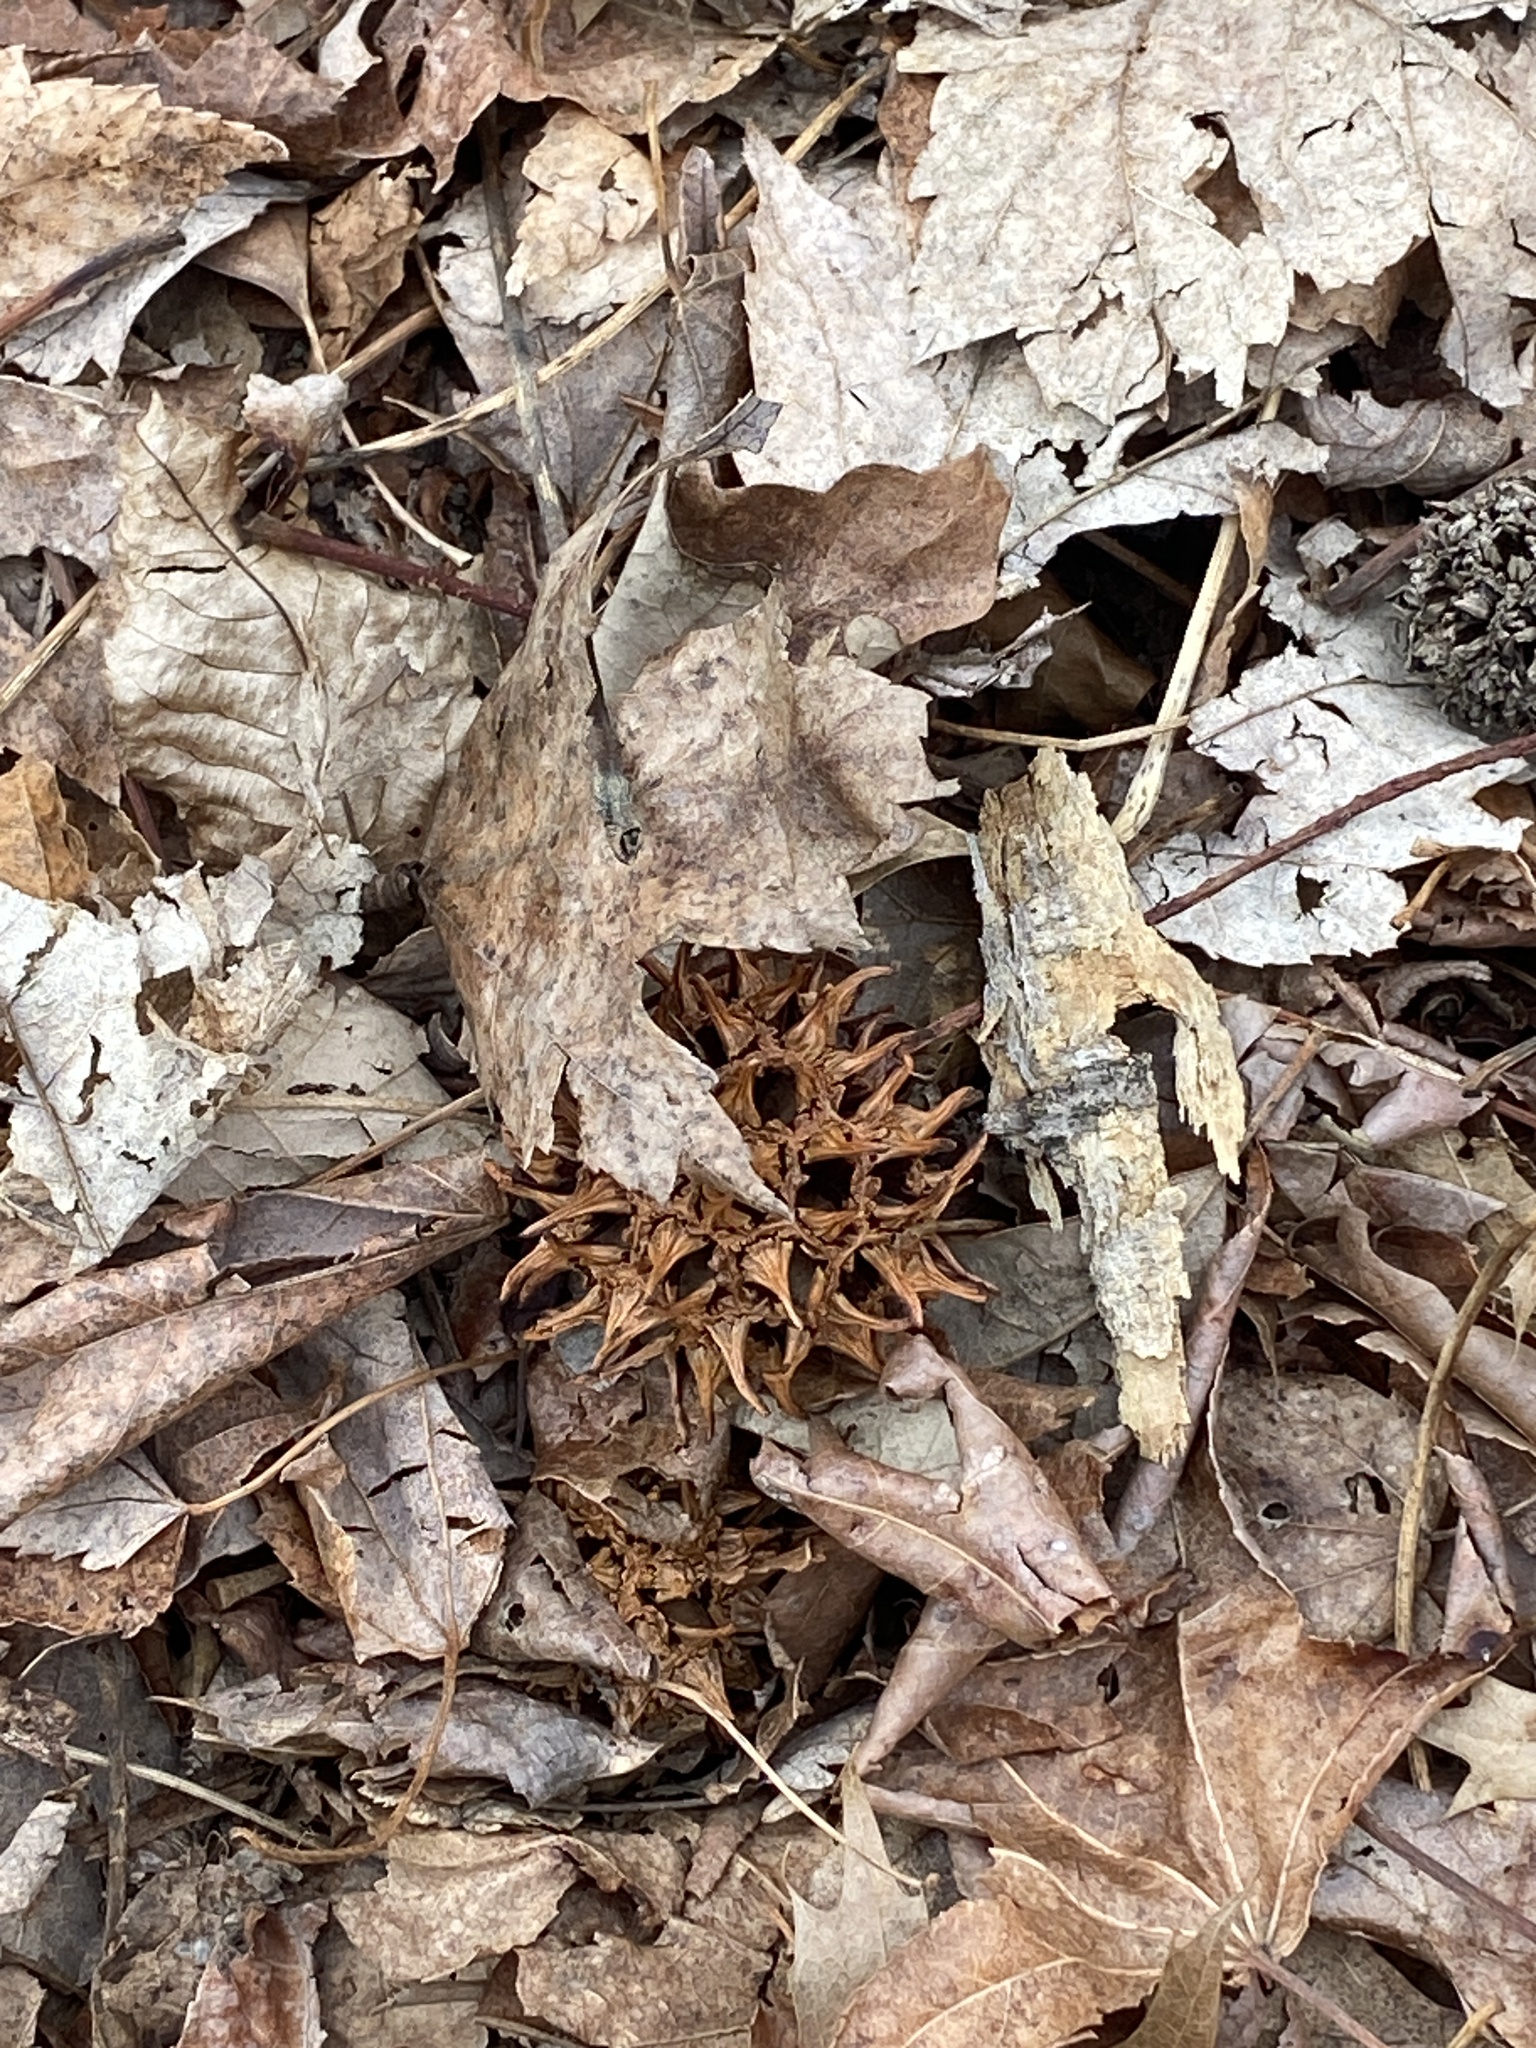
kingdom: Plantae
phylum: Tracheophyta
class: Magnoliopsida
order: Saxifragales
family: Altingiaceae
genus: Liquidambar
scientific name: Liquidambar styraciflua
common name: Sweet gum
